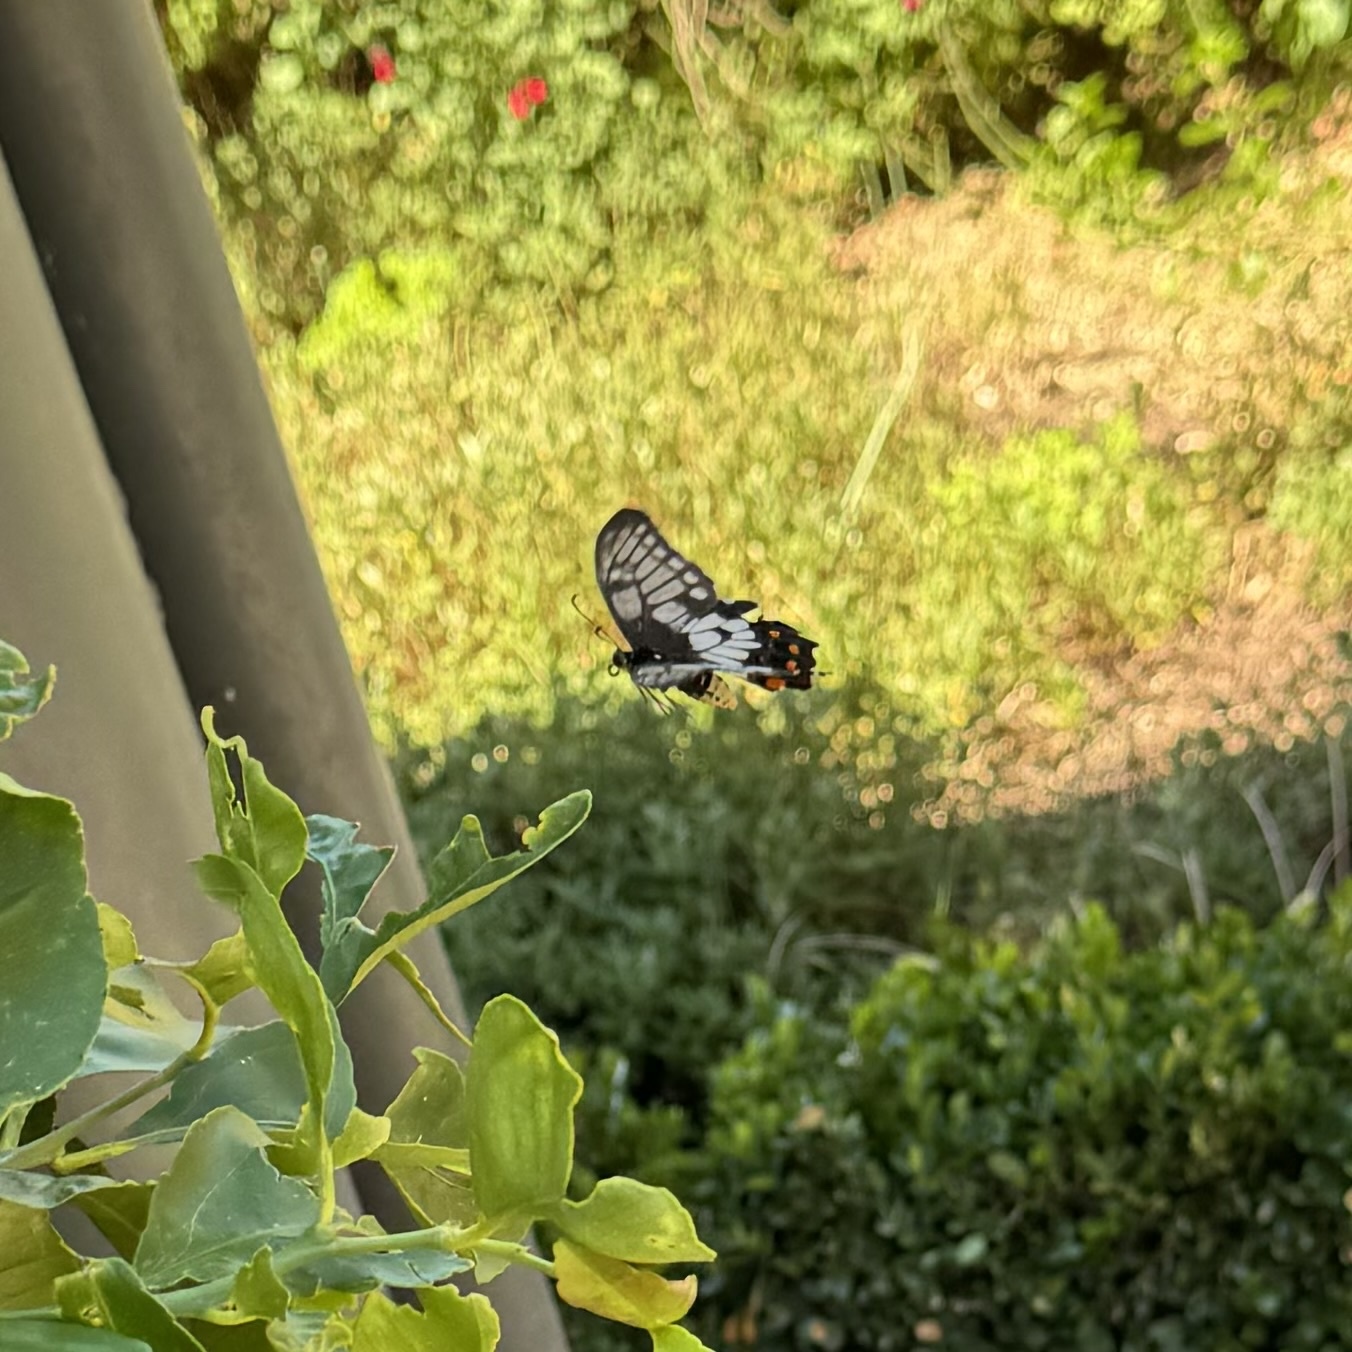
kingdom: Animalia
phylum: Arthropoda
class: Insecta
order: Lepidoptera
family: Papilionidae
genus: Papilio
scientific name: Papilio anactus
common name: Dingy swallowtail
